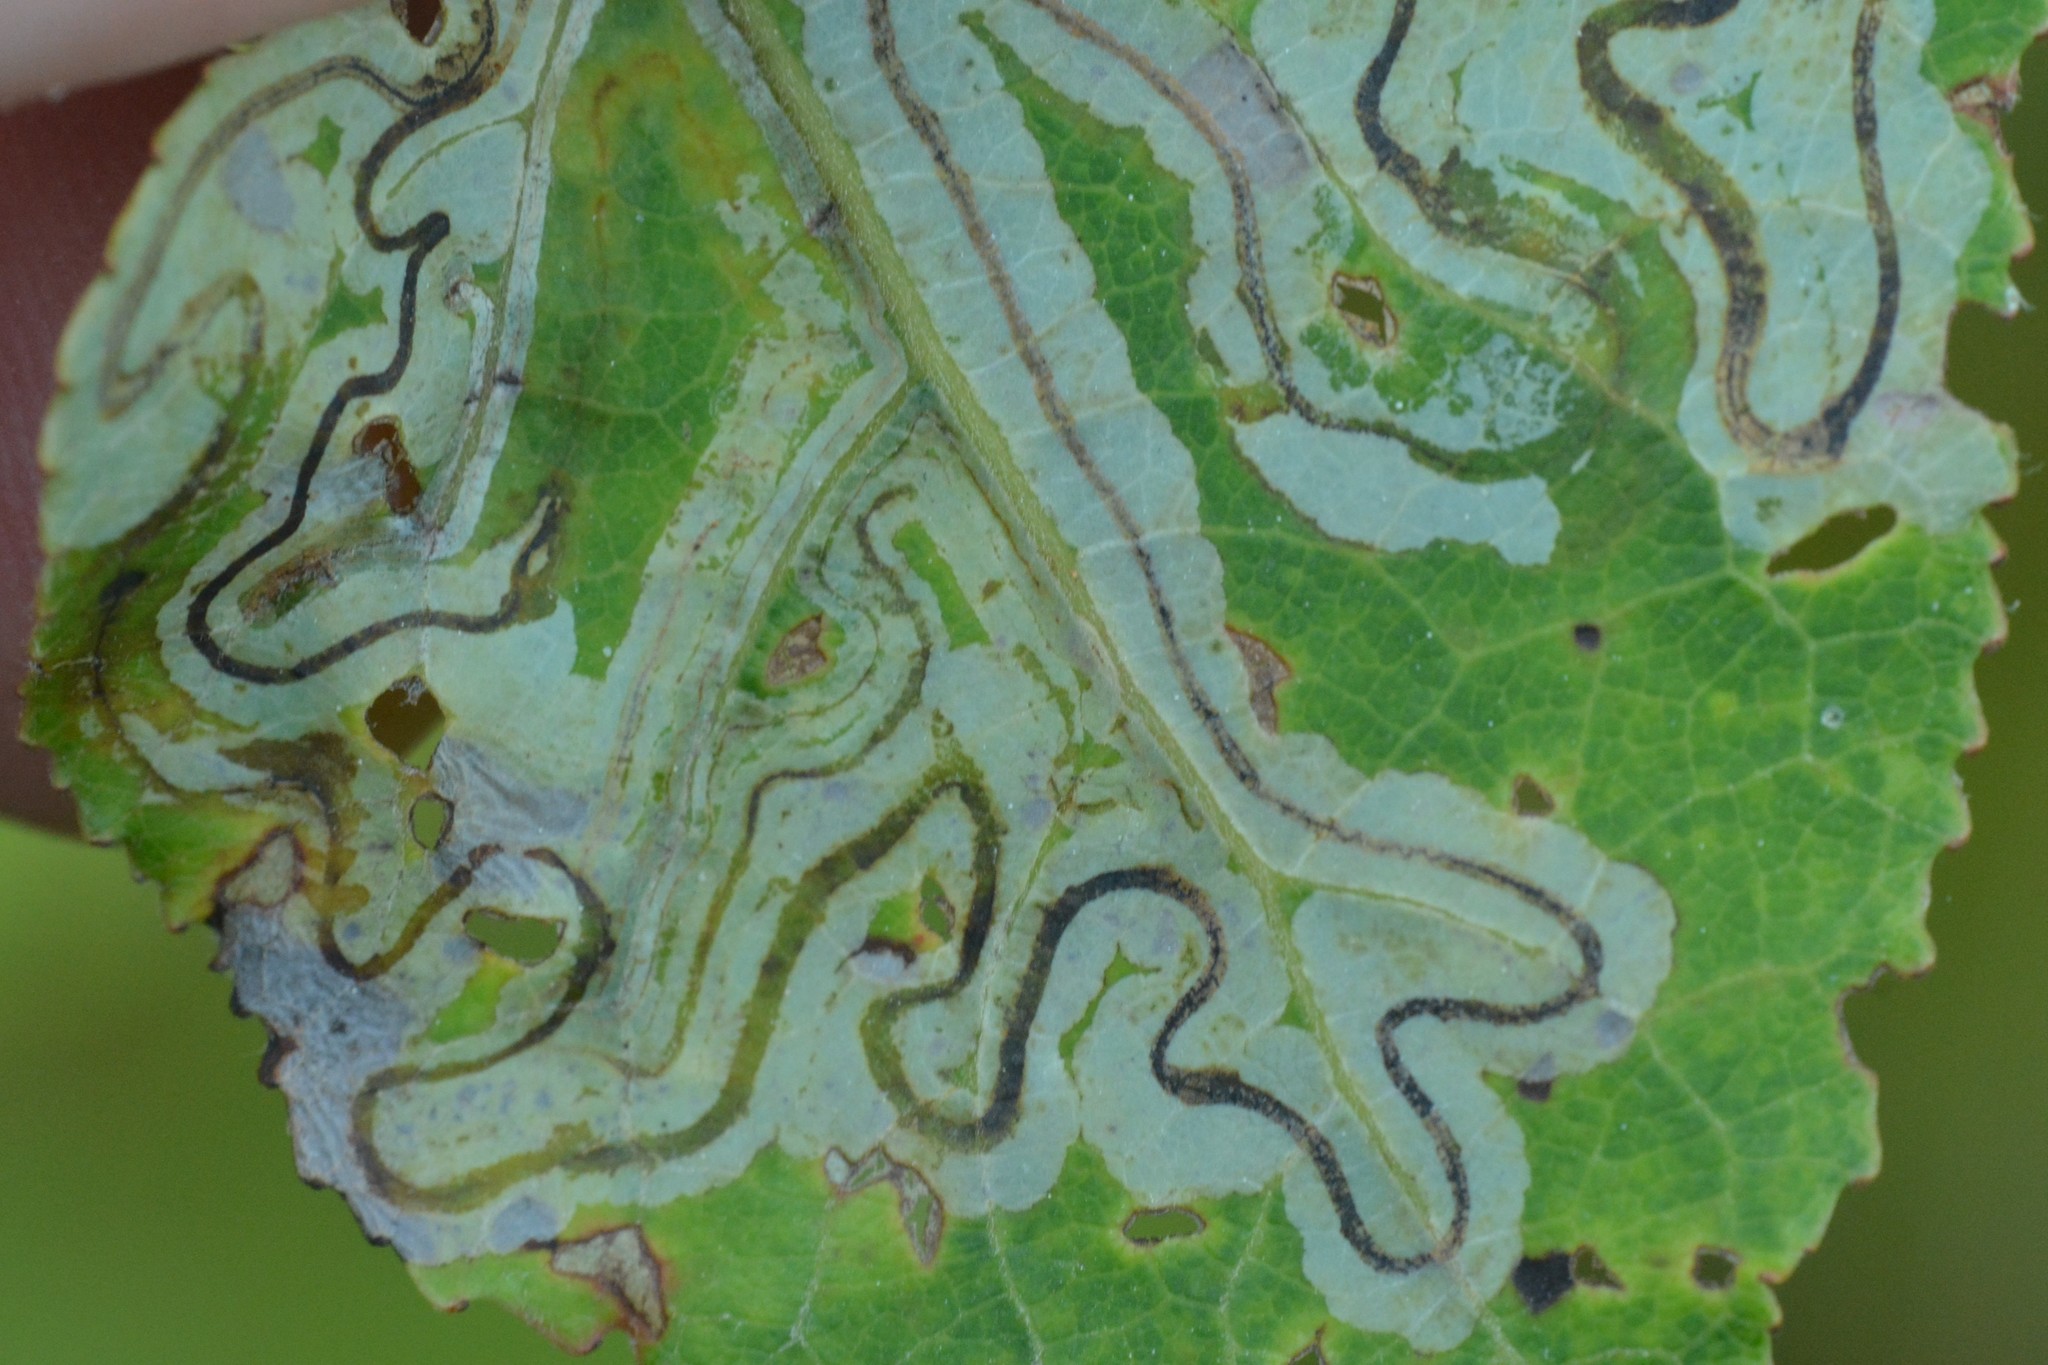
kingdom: Animalia
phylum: Arthropoda
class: Insecta
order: Lepidoptera
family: Gracillariidae
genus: Phyllocnistis
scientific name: Phyllocnistis populiella
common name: Aspen serpentine leafminer moth
